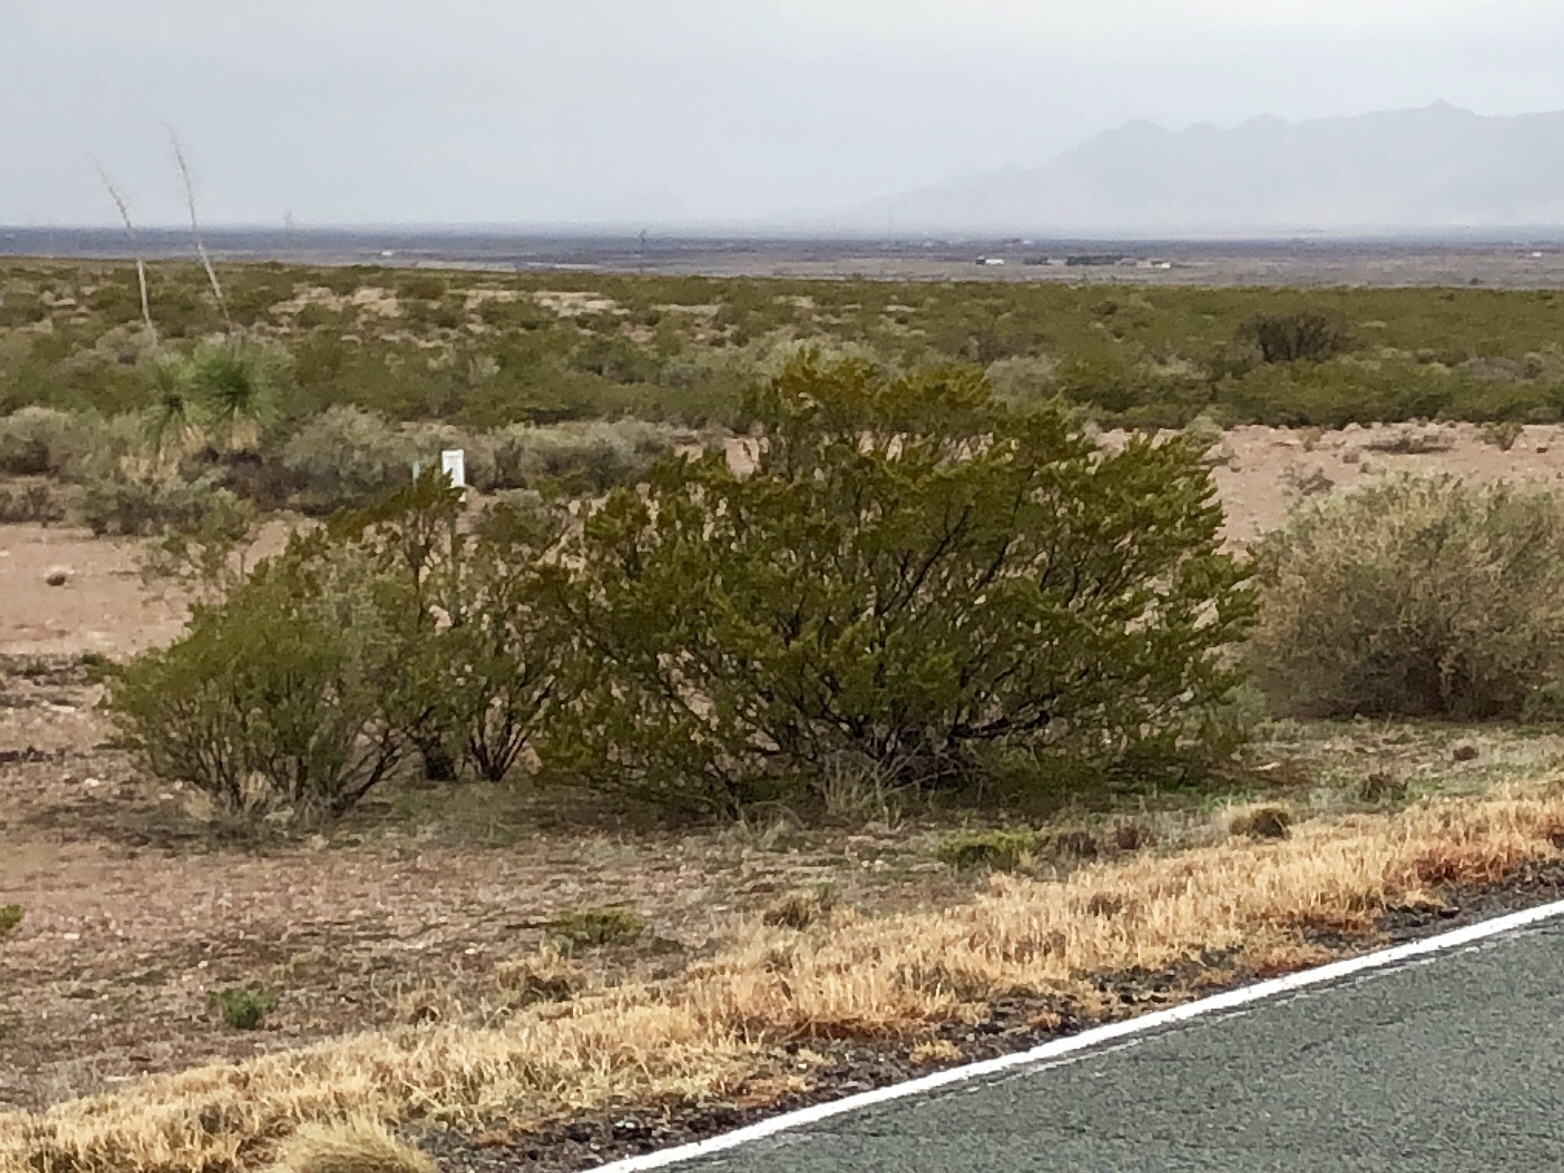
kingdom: Plantae
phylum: Tracheophyta
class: Magnoliopsida
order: Zygophyllales
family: Zygophyllaceae
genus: Larrea
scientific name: Larrea tridentata
